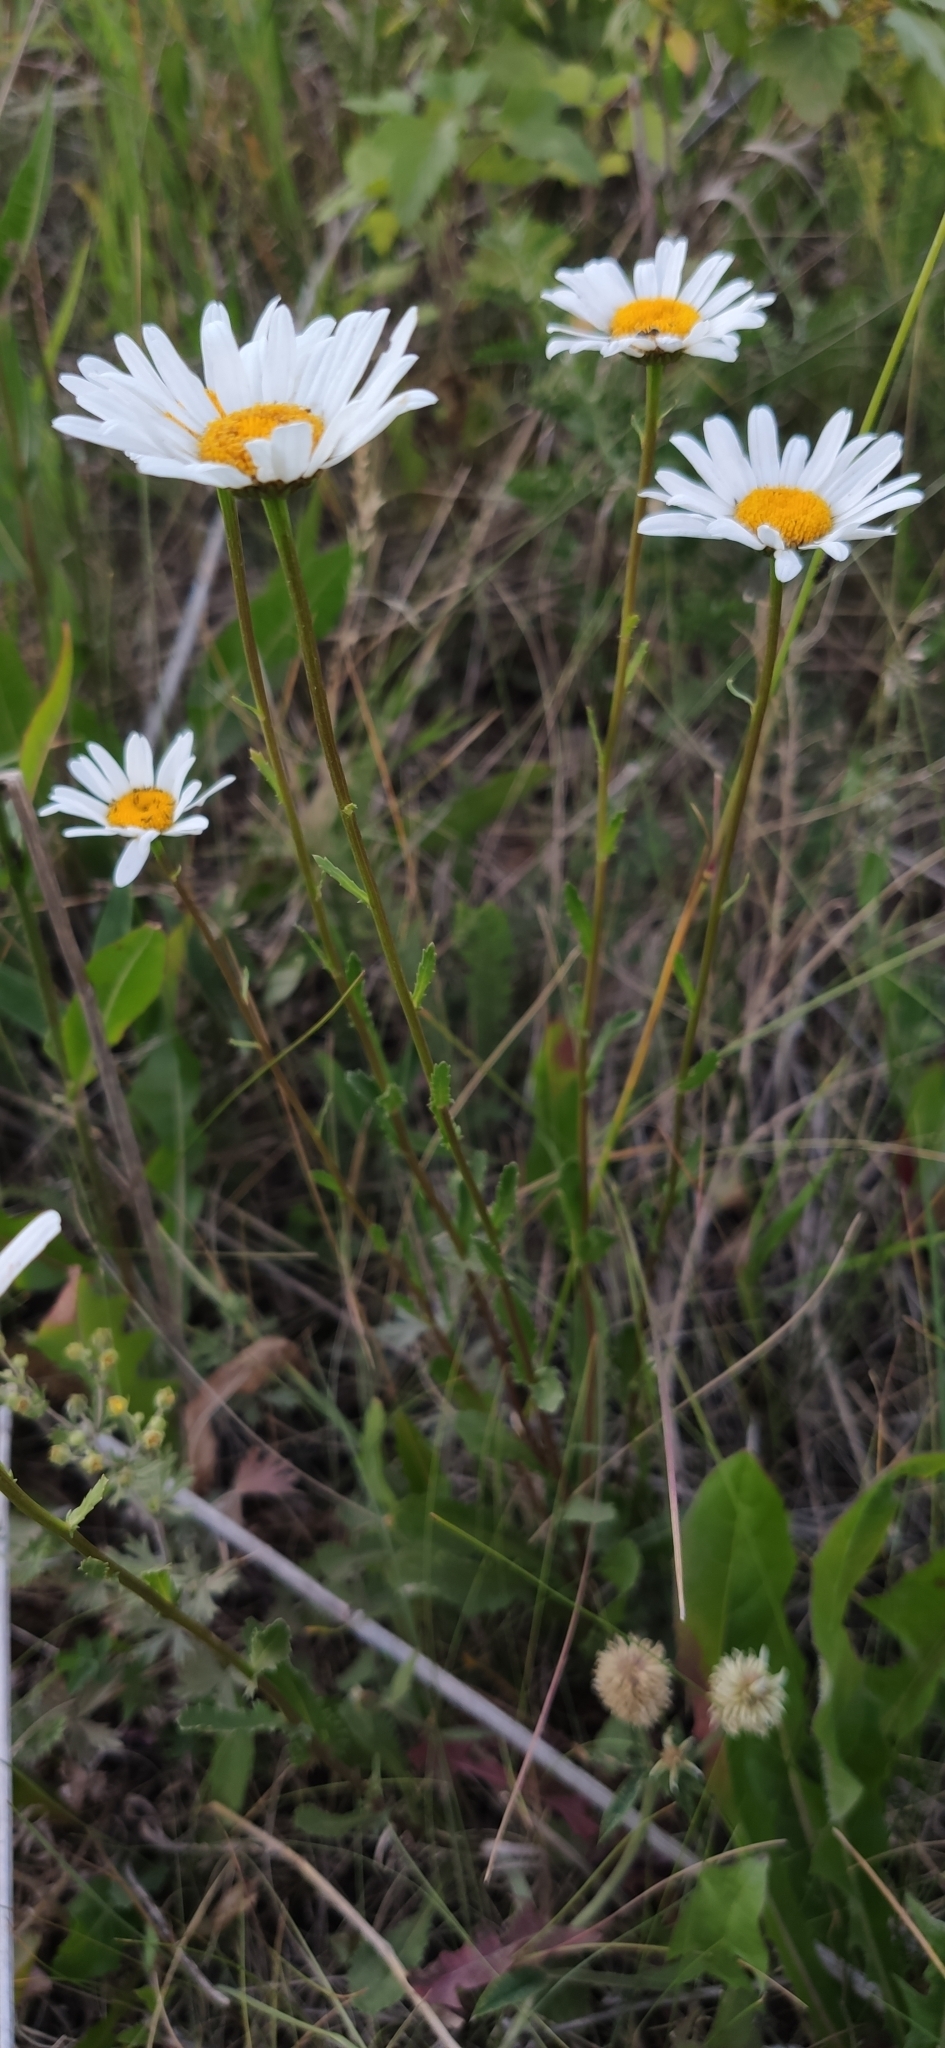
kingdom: Plantae
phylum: Tracheophyta
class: Magnoliopsida
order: Asterales
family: Asteraceae
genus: Leucanthemum
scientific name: Leucanthemum vulgare
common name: Oxeye daisy
